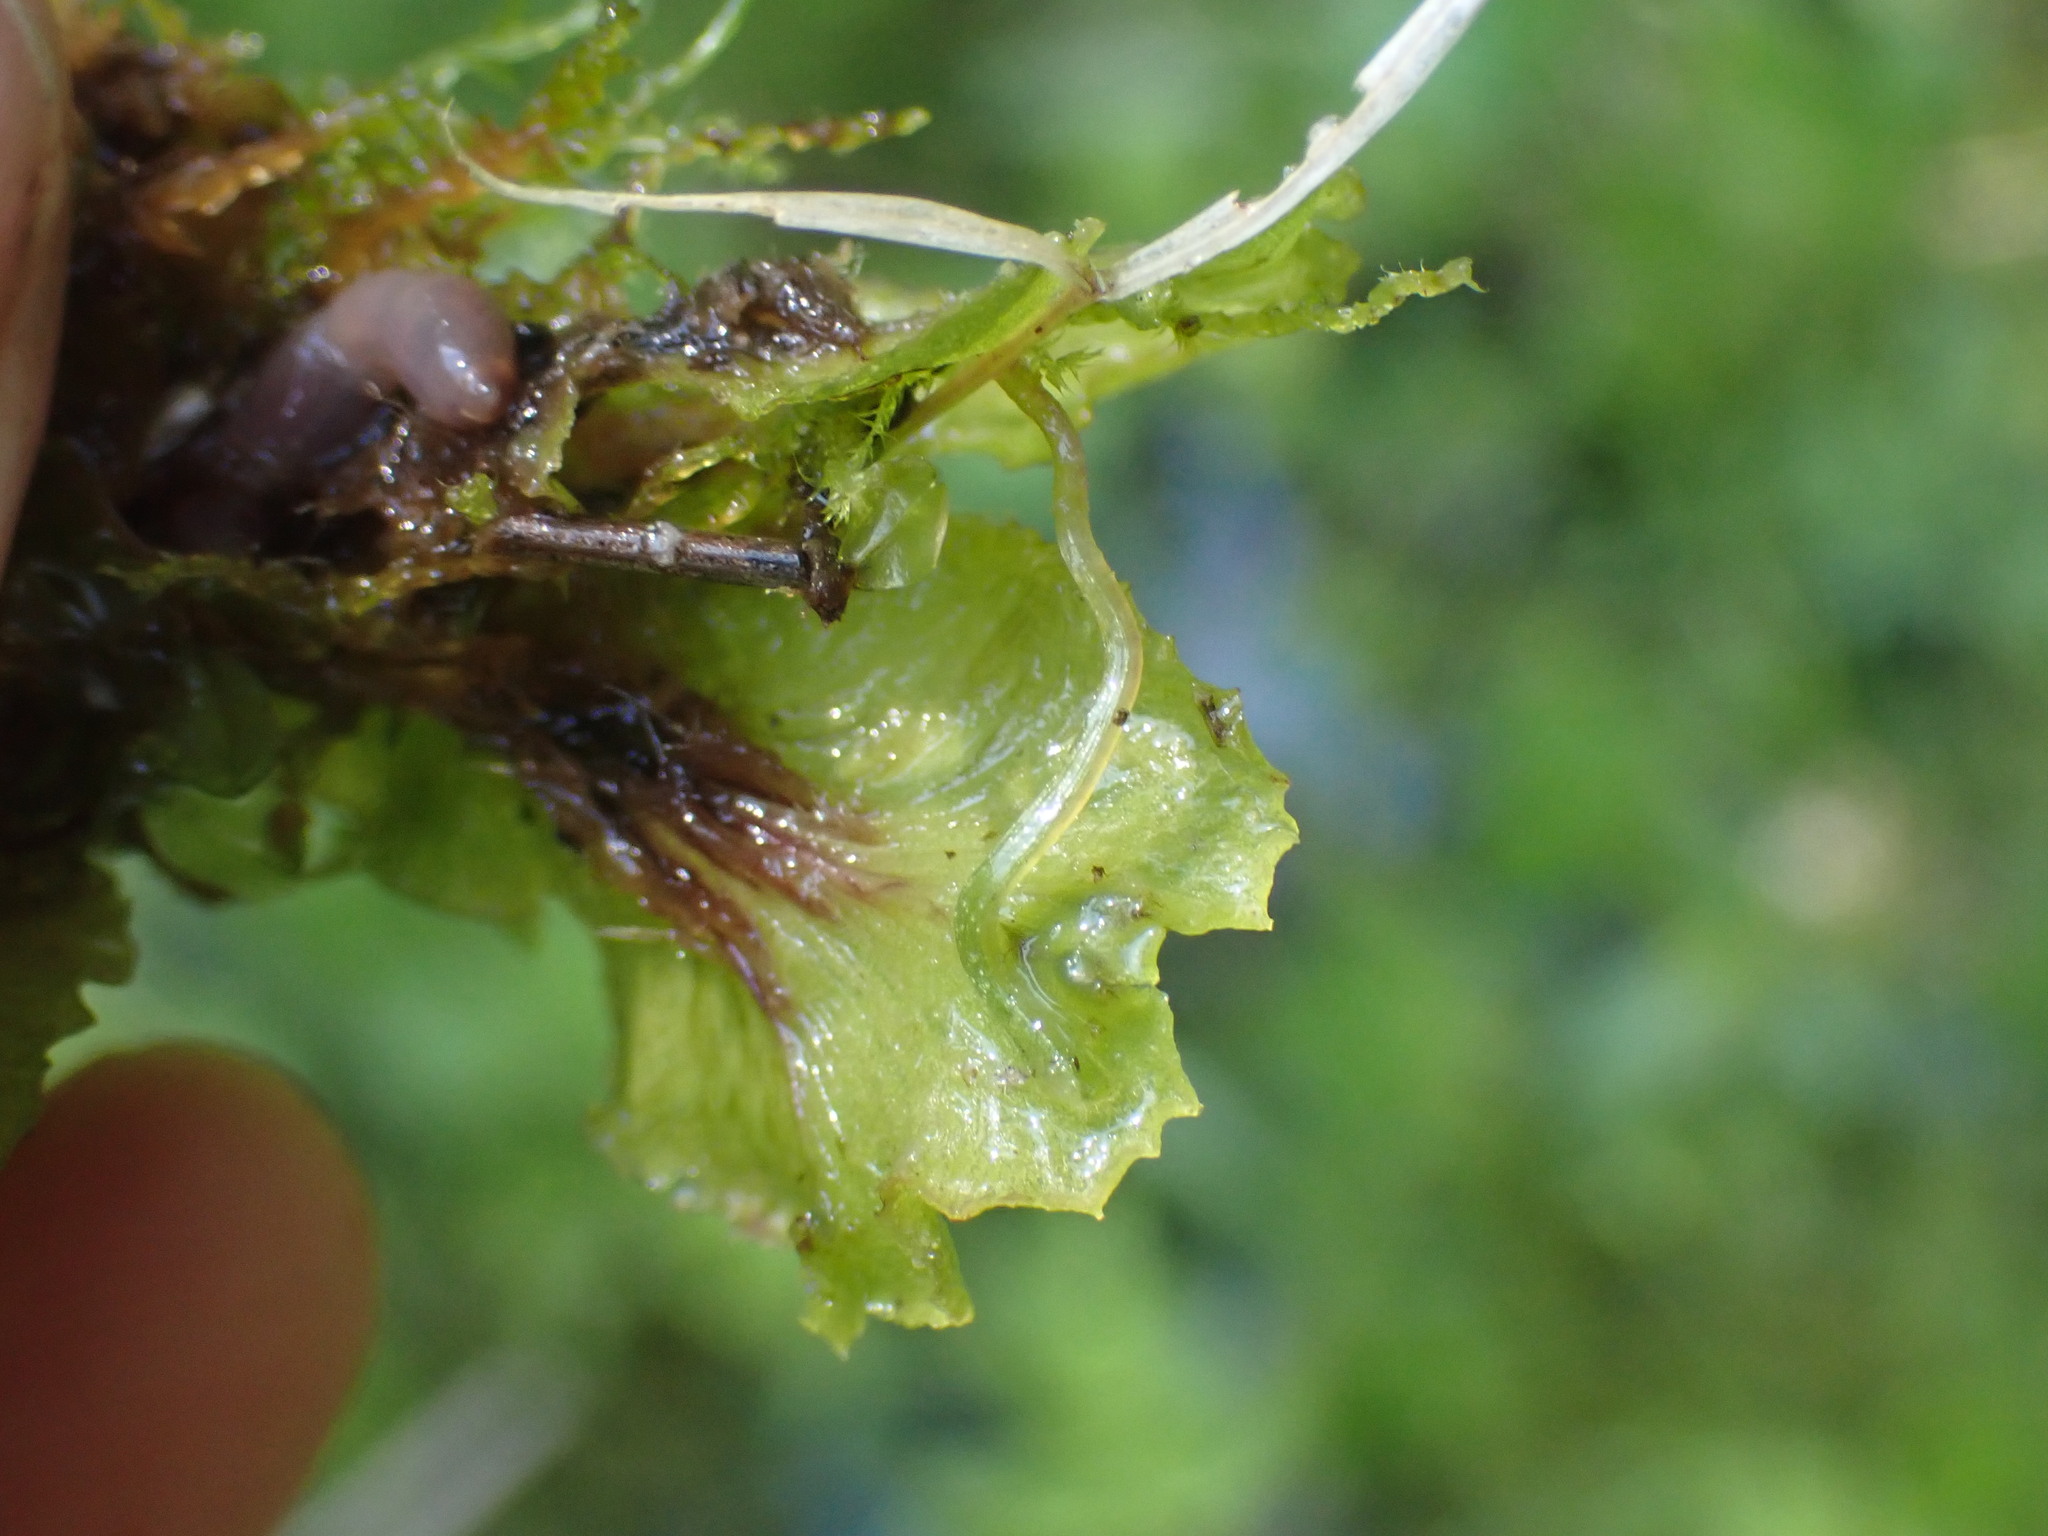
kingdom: Plantae
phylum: Marchantiophyta
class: Marchantiopsida
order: Marchantiales
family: Marchantiaceae
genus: Marchantia
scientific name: Marchantia polymorpha
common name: Common liverwort
